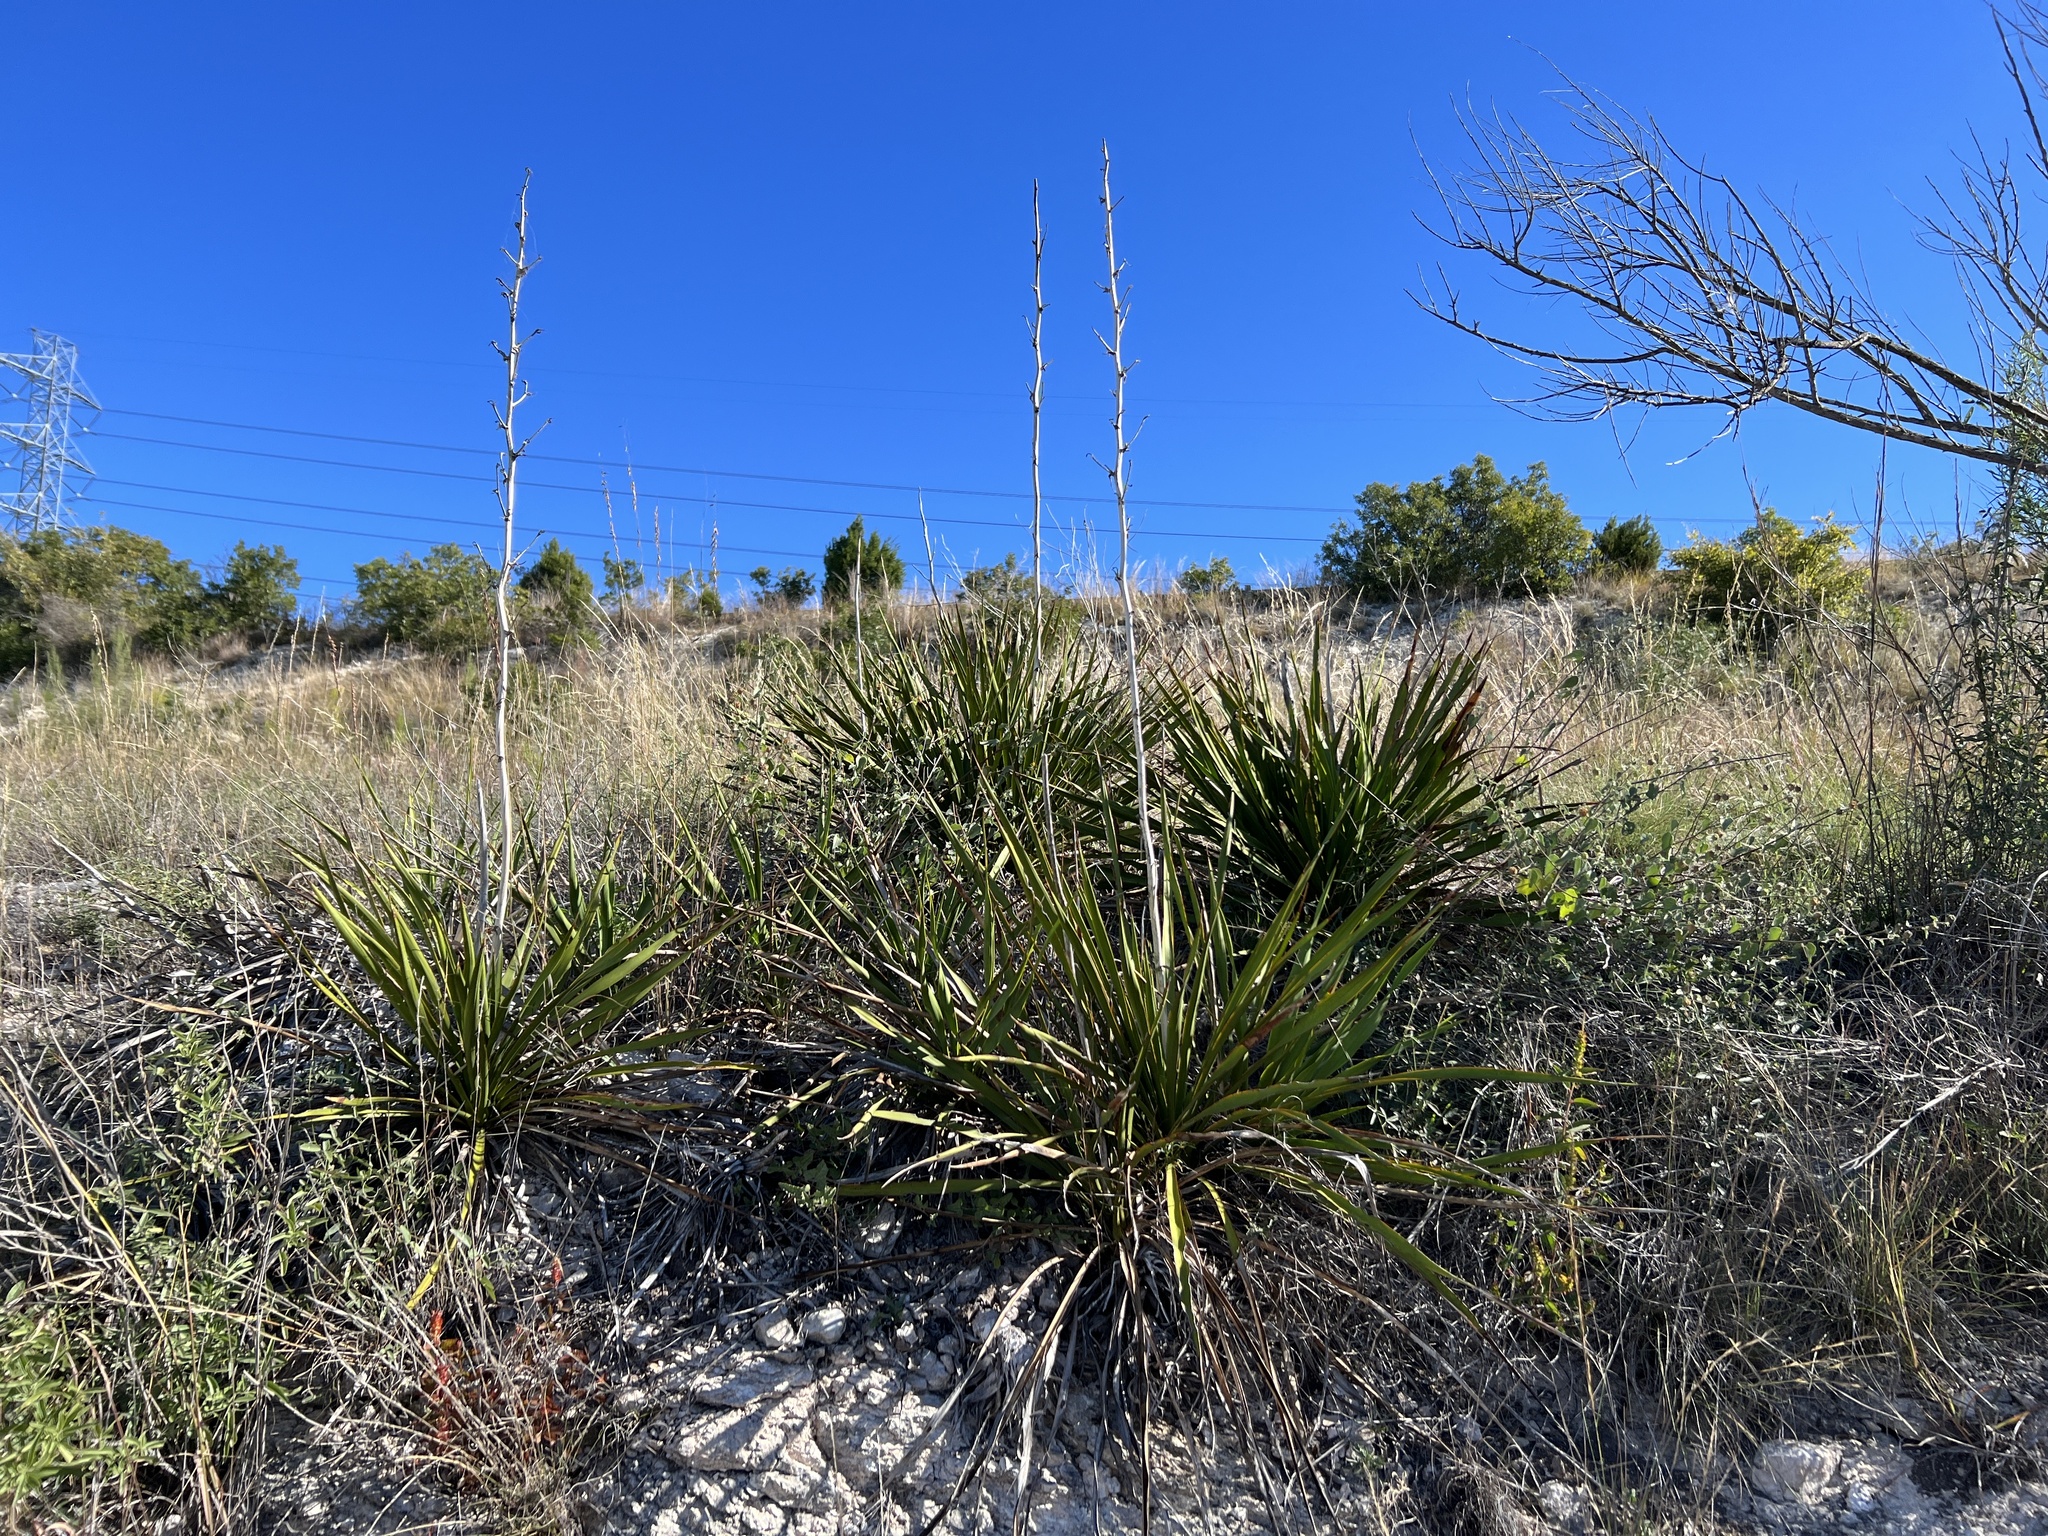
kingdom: Plantae
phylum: Tracheophyta
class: Liliopsida
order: Asparagales
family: Asparagaceae
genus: Yucca
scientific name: Yucca rupicola
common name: Twisted-leaf spanish-dagger
